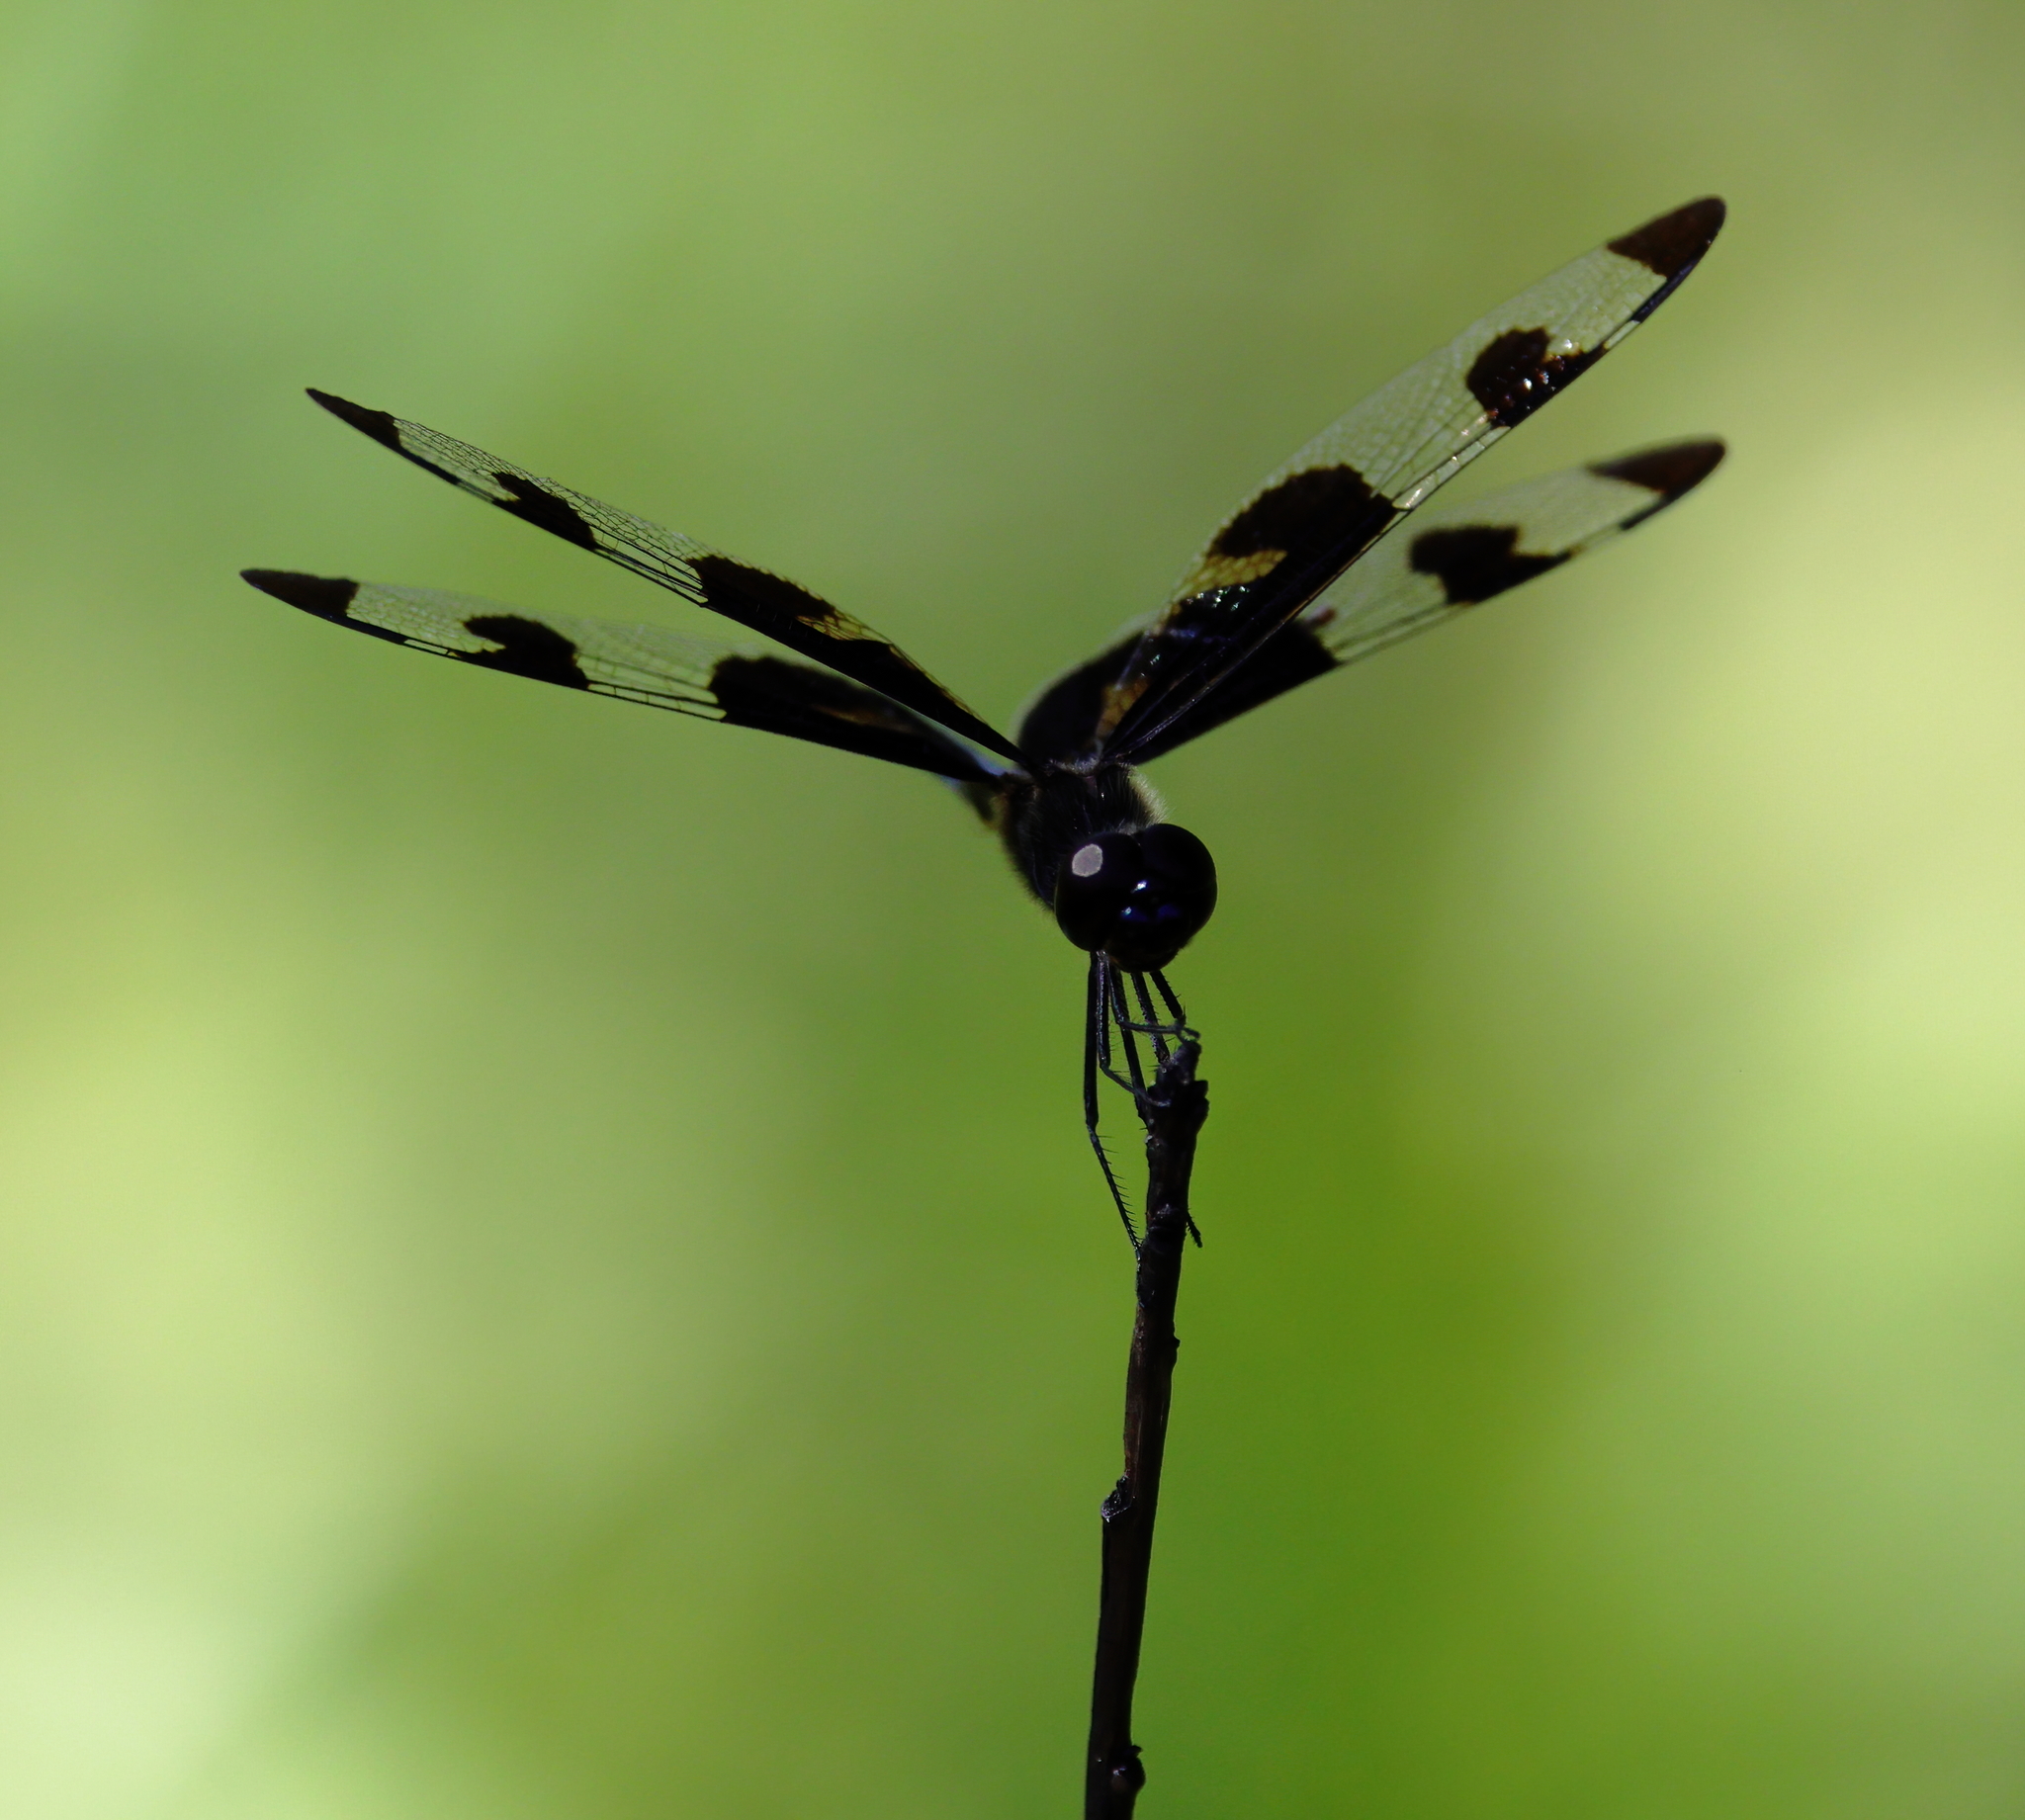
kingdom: Animalia
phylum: Arthropoda
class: Insecta
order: Odonata
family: Libellulidae
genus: Celithemis
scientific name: Celithemis fasciata
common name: Banded pennant
